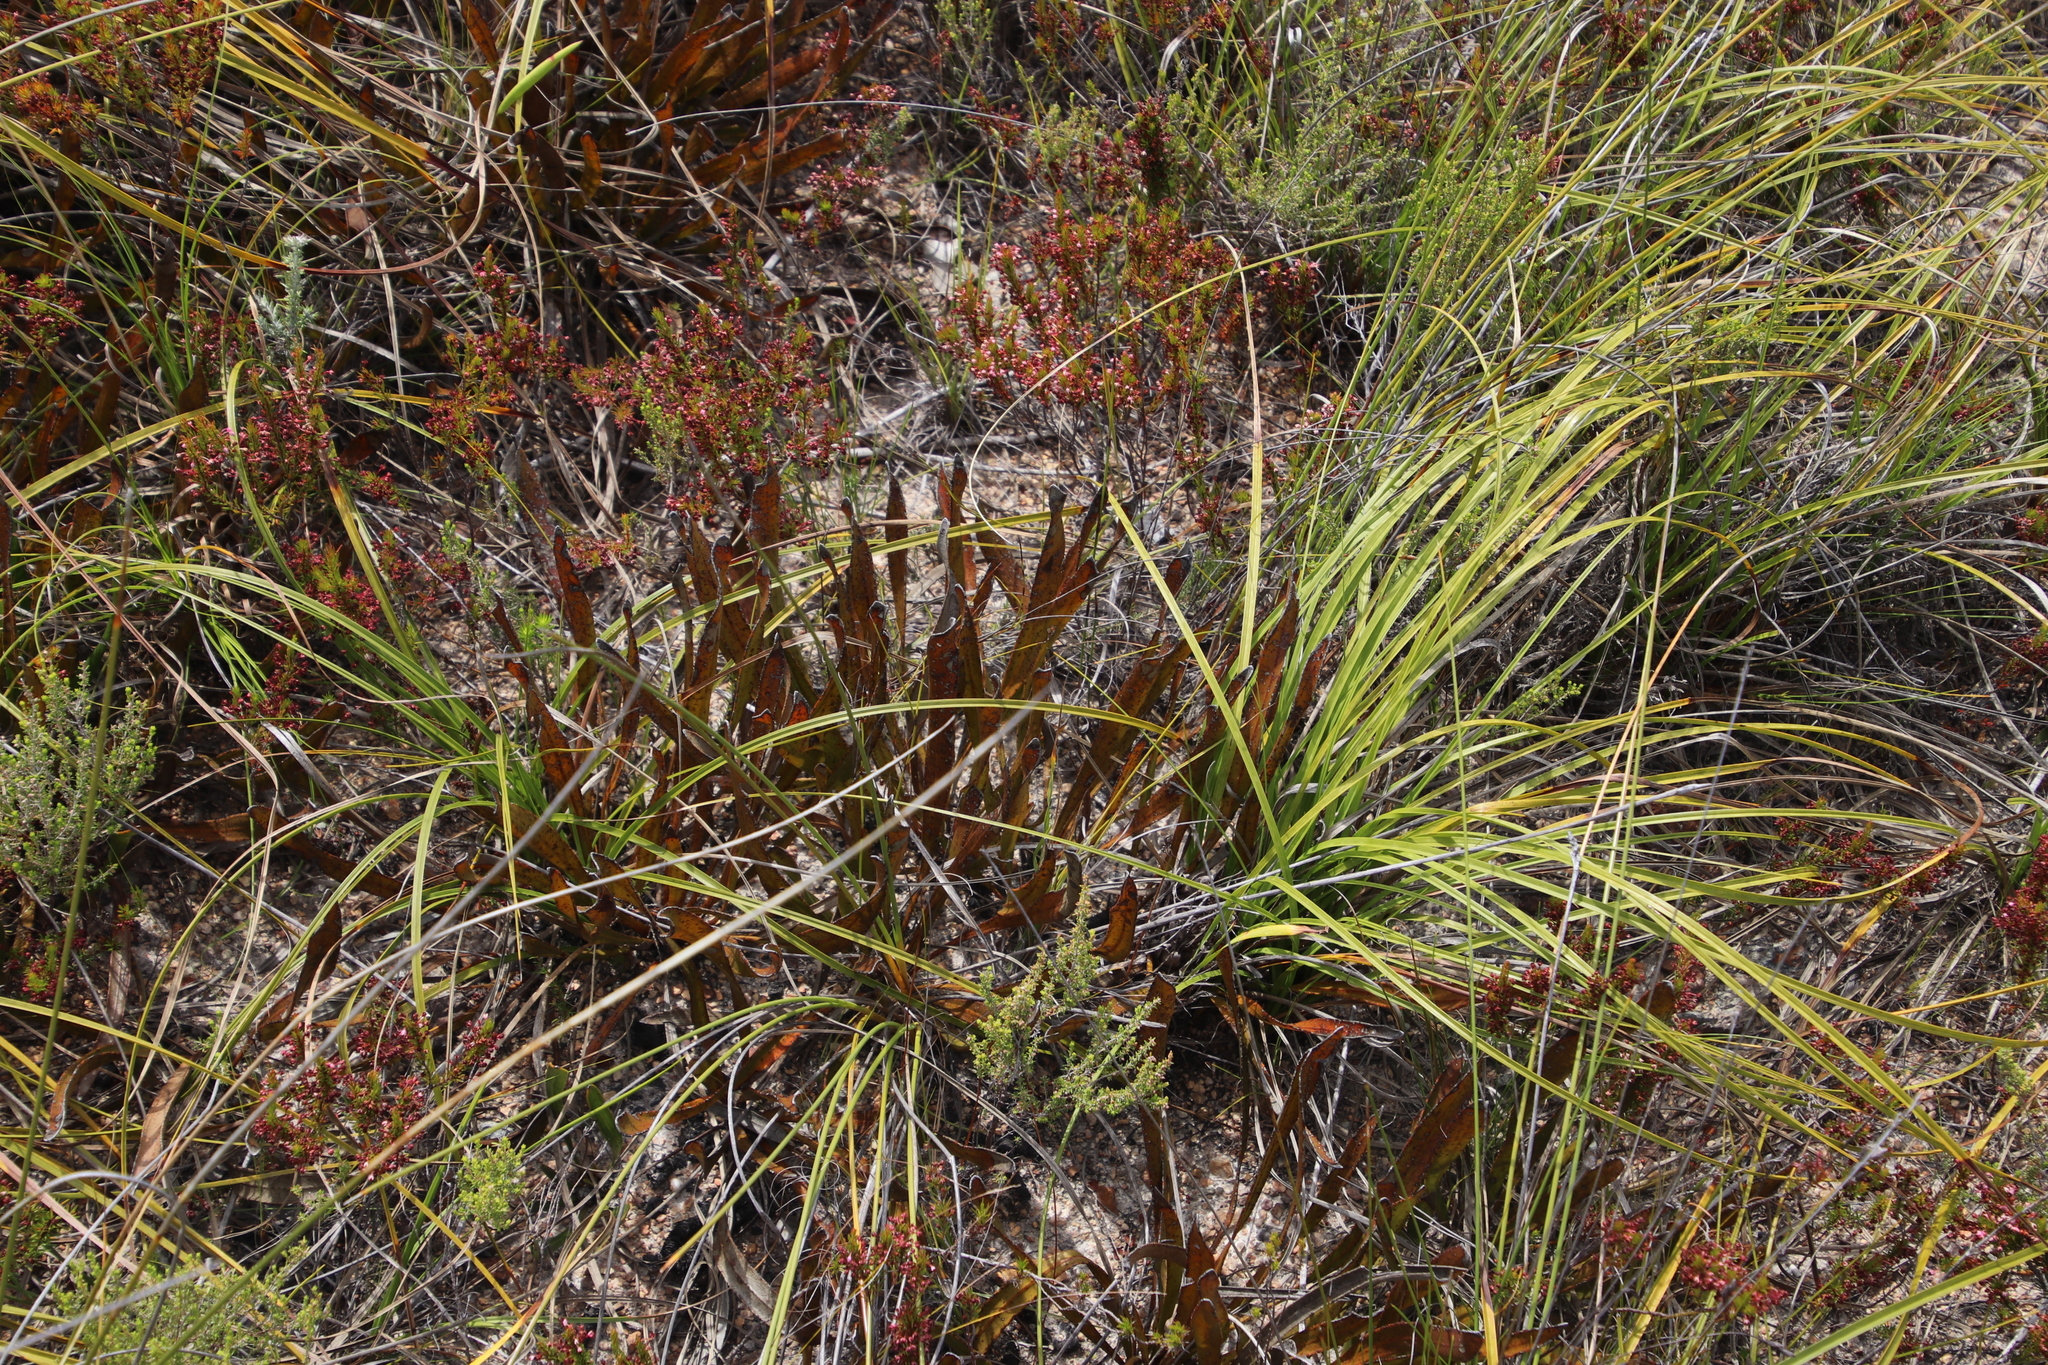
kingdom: Plantae
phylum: Tracheophyta
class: Magnoliopsida
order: Proteales
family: Proteaceae
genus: Protea
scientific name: Protea aspera
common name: Rough-leaf sugarbush
